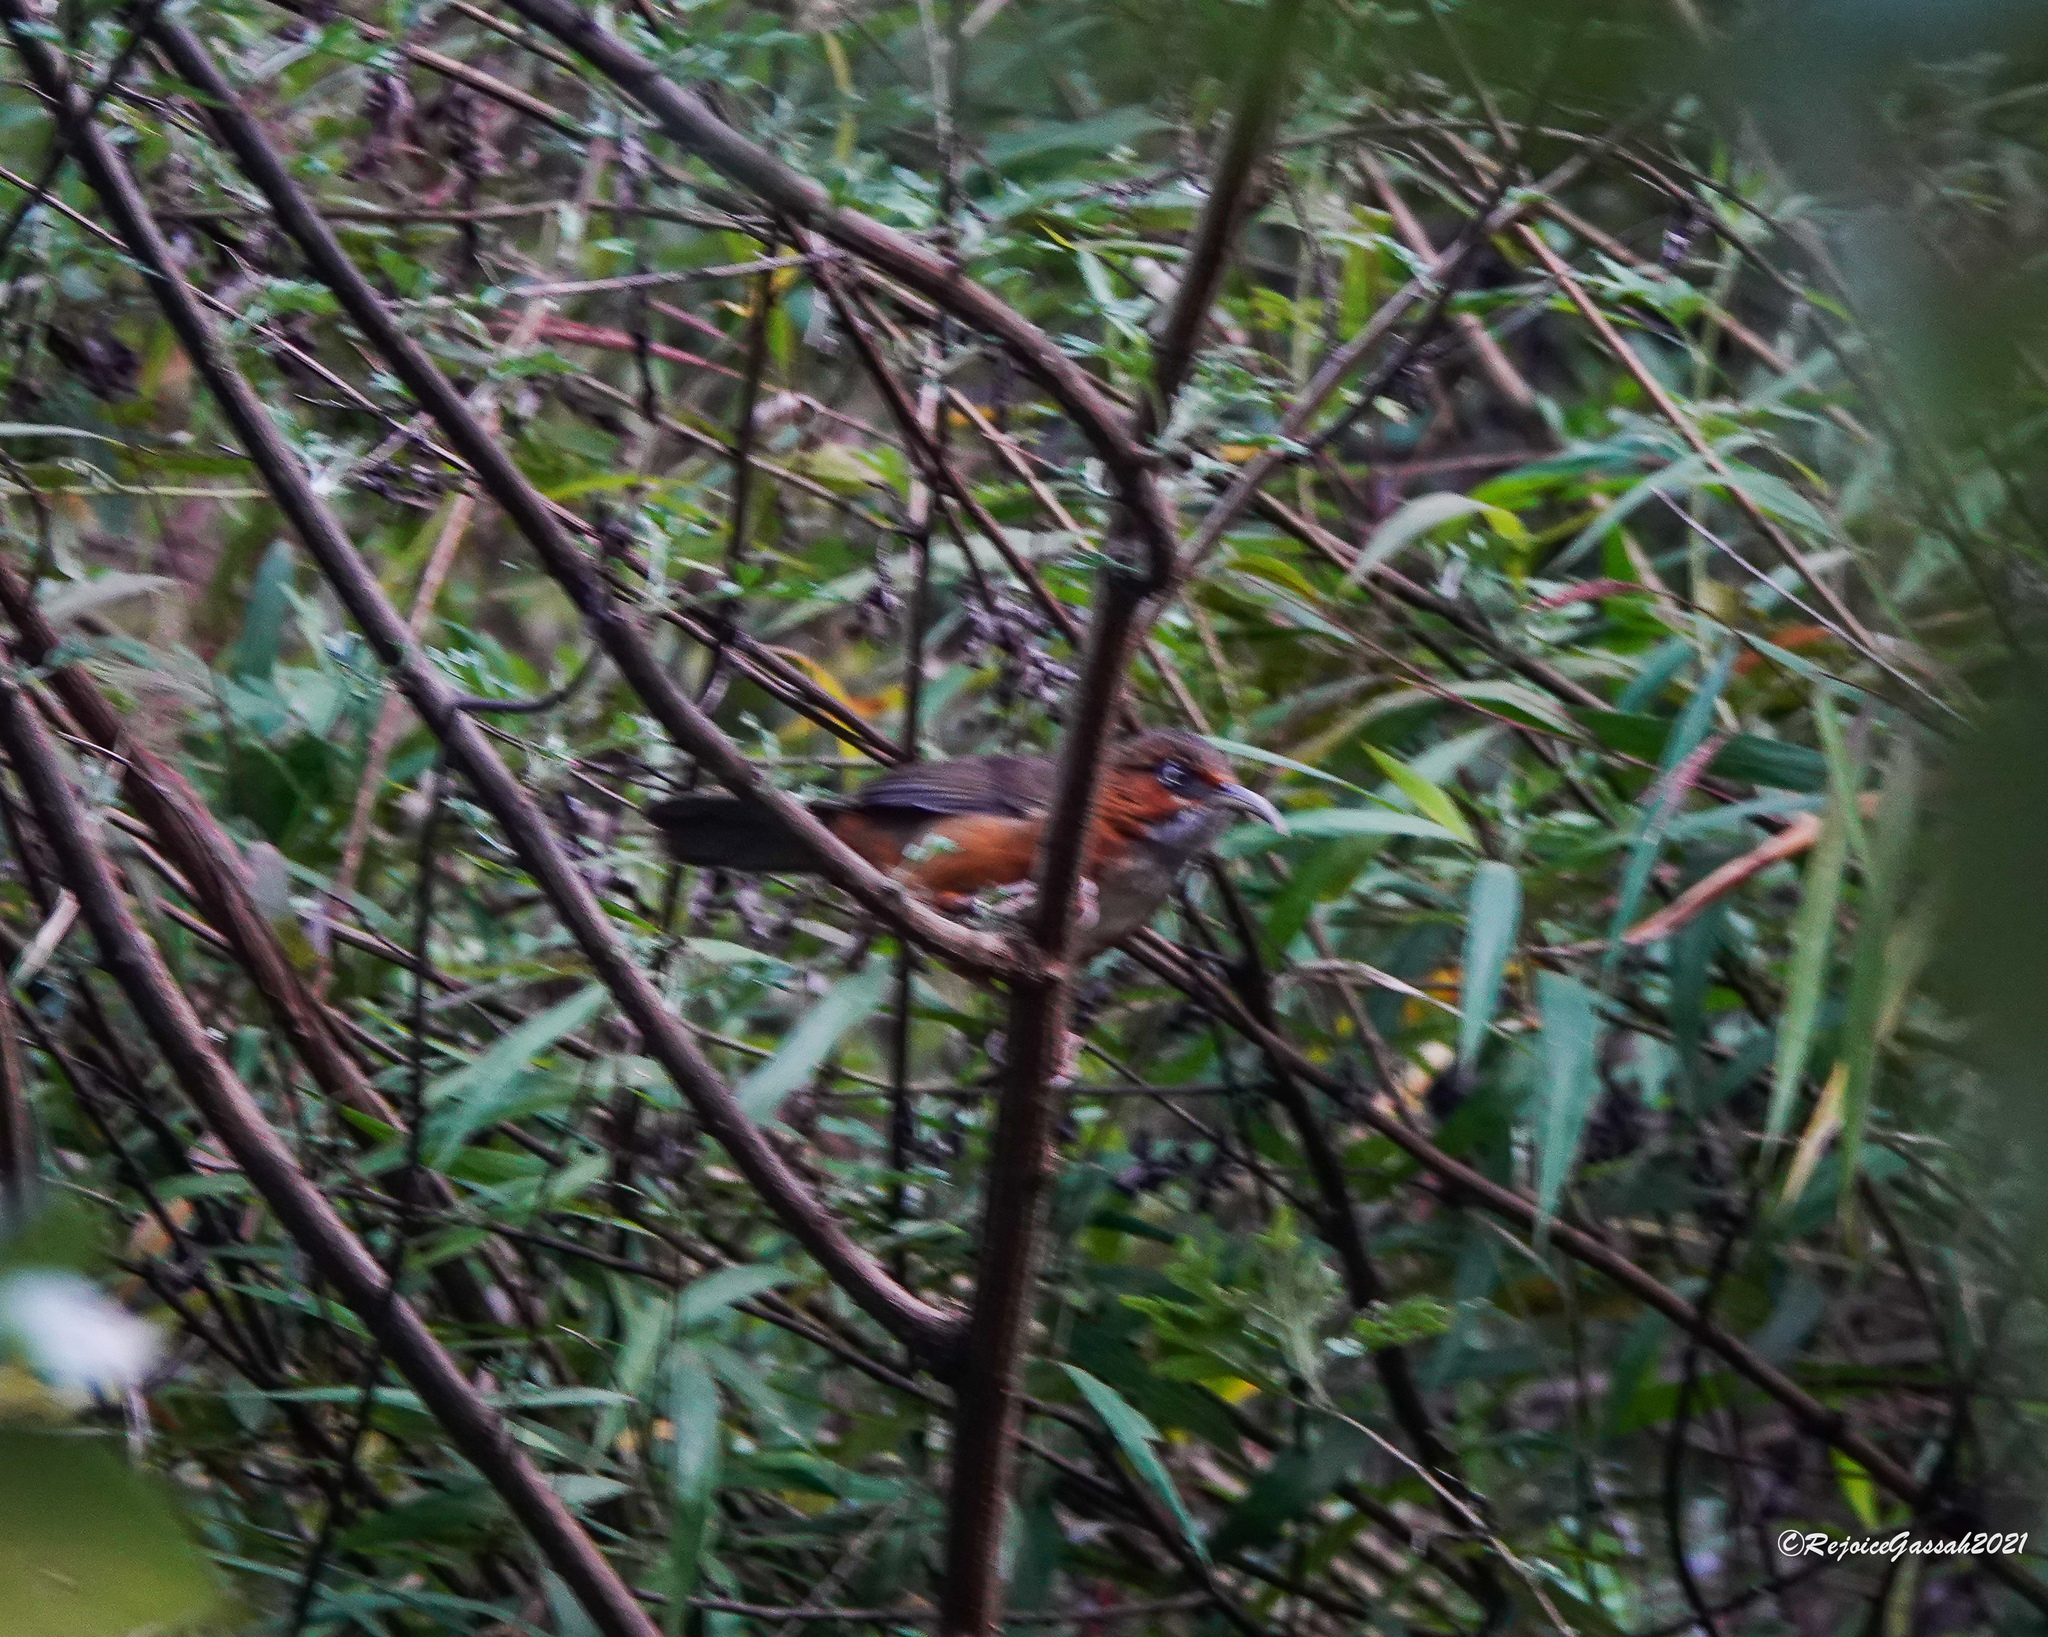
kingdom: Animalia
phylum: Chordata
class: Aves
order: Passeriformes
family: Timaliidae
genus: Pomatorhinus
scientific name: Pomatorhinus erythrogenys
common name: Rusty-cheeked scimitar babbler
